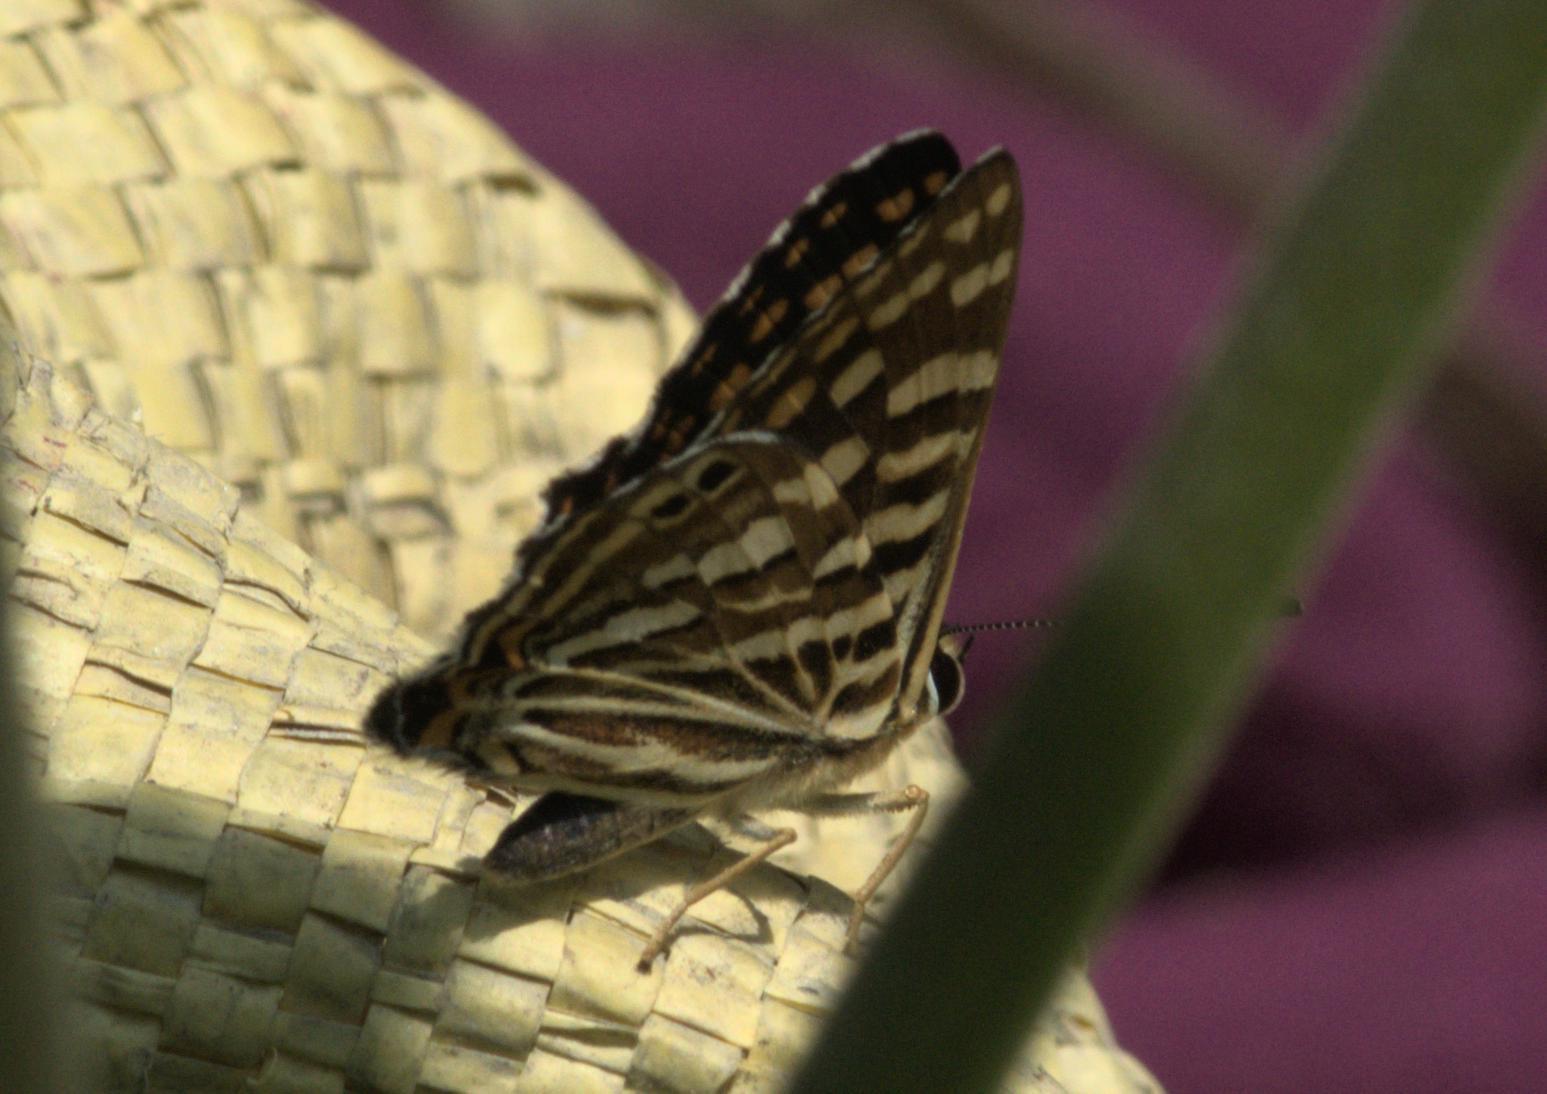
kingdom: Animalia
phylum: Arthropoda
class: Insecta
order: Lepidoptera
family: Lycaenidae
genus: Dodona
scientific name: Dodona durga
